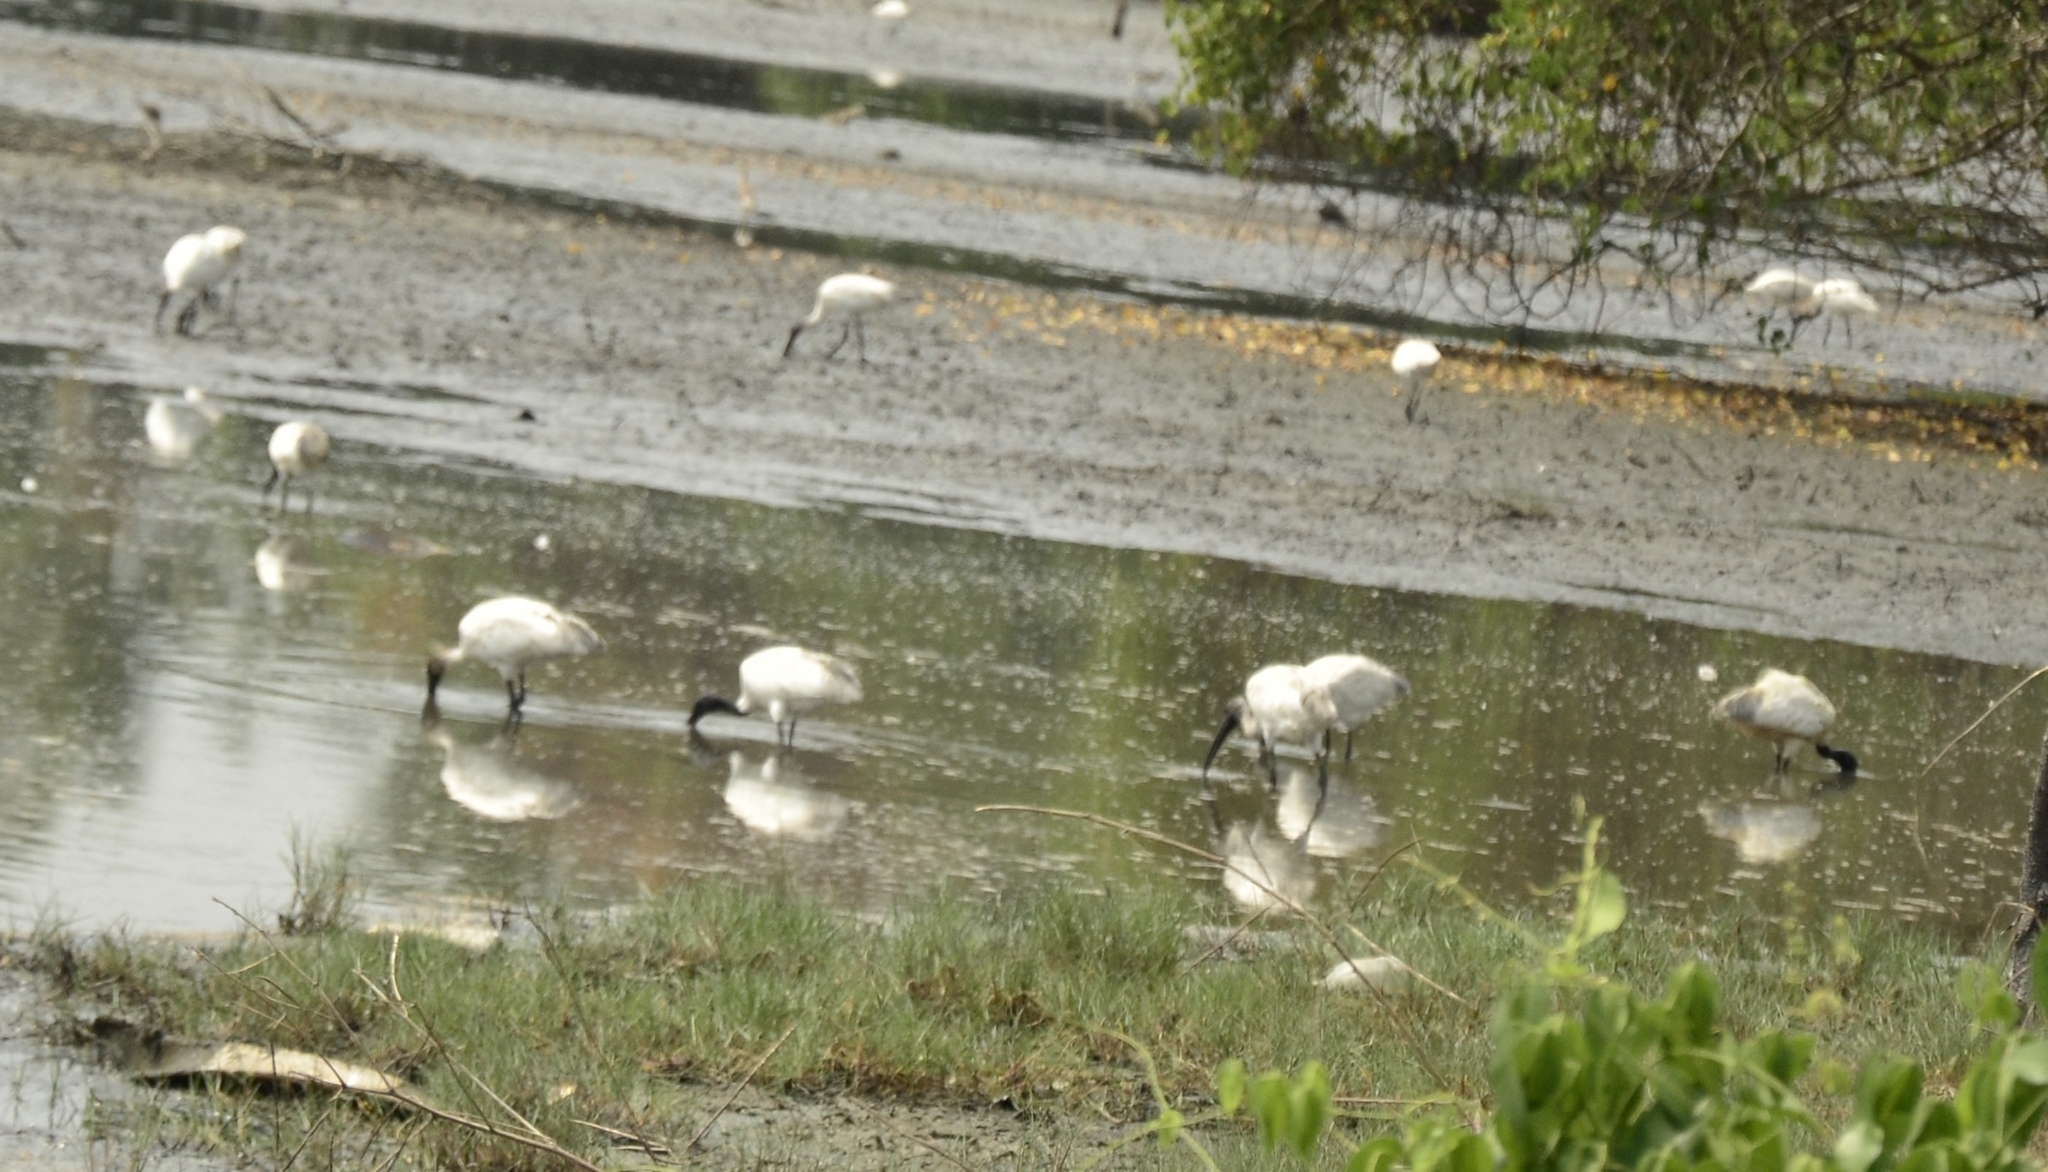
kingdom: Animalia
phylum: Chordata
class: Aves
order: Pelecaniformes
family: Threskiornithidae
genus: Threskiornis
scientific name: Threskiornis melanocephalus
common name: Black-headed ibis
